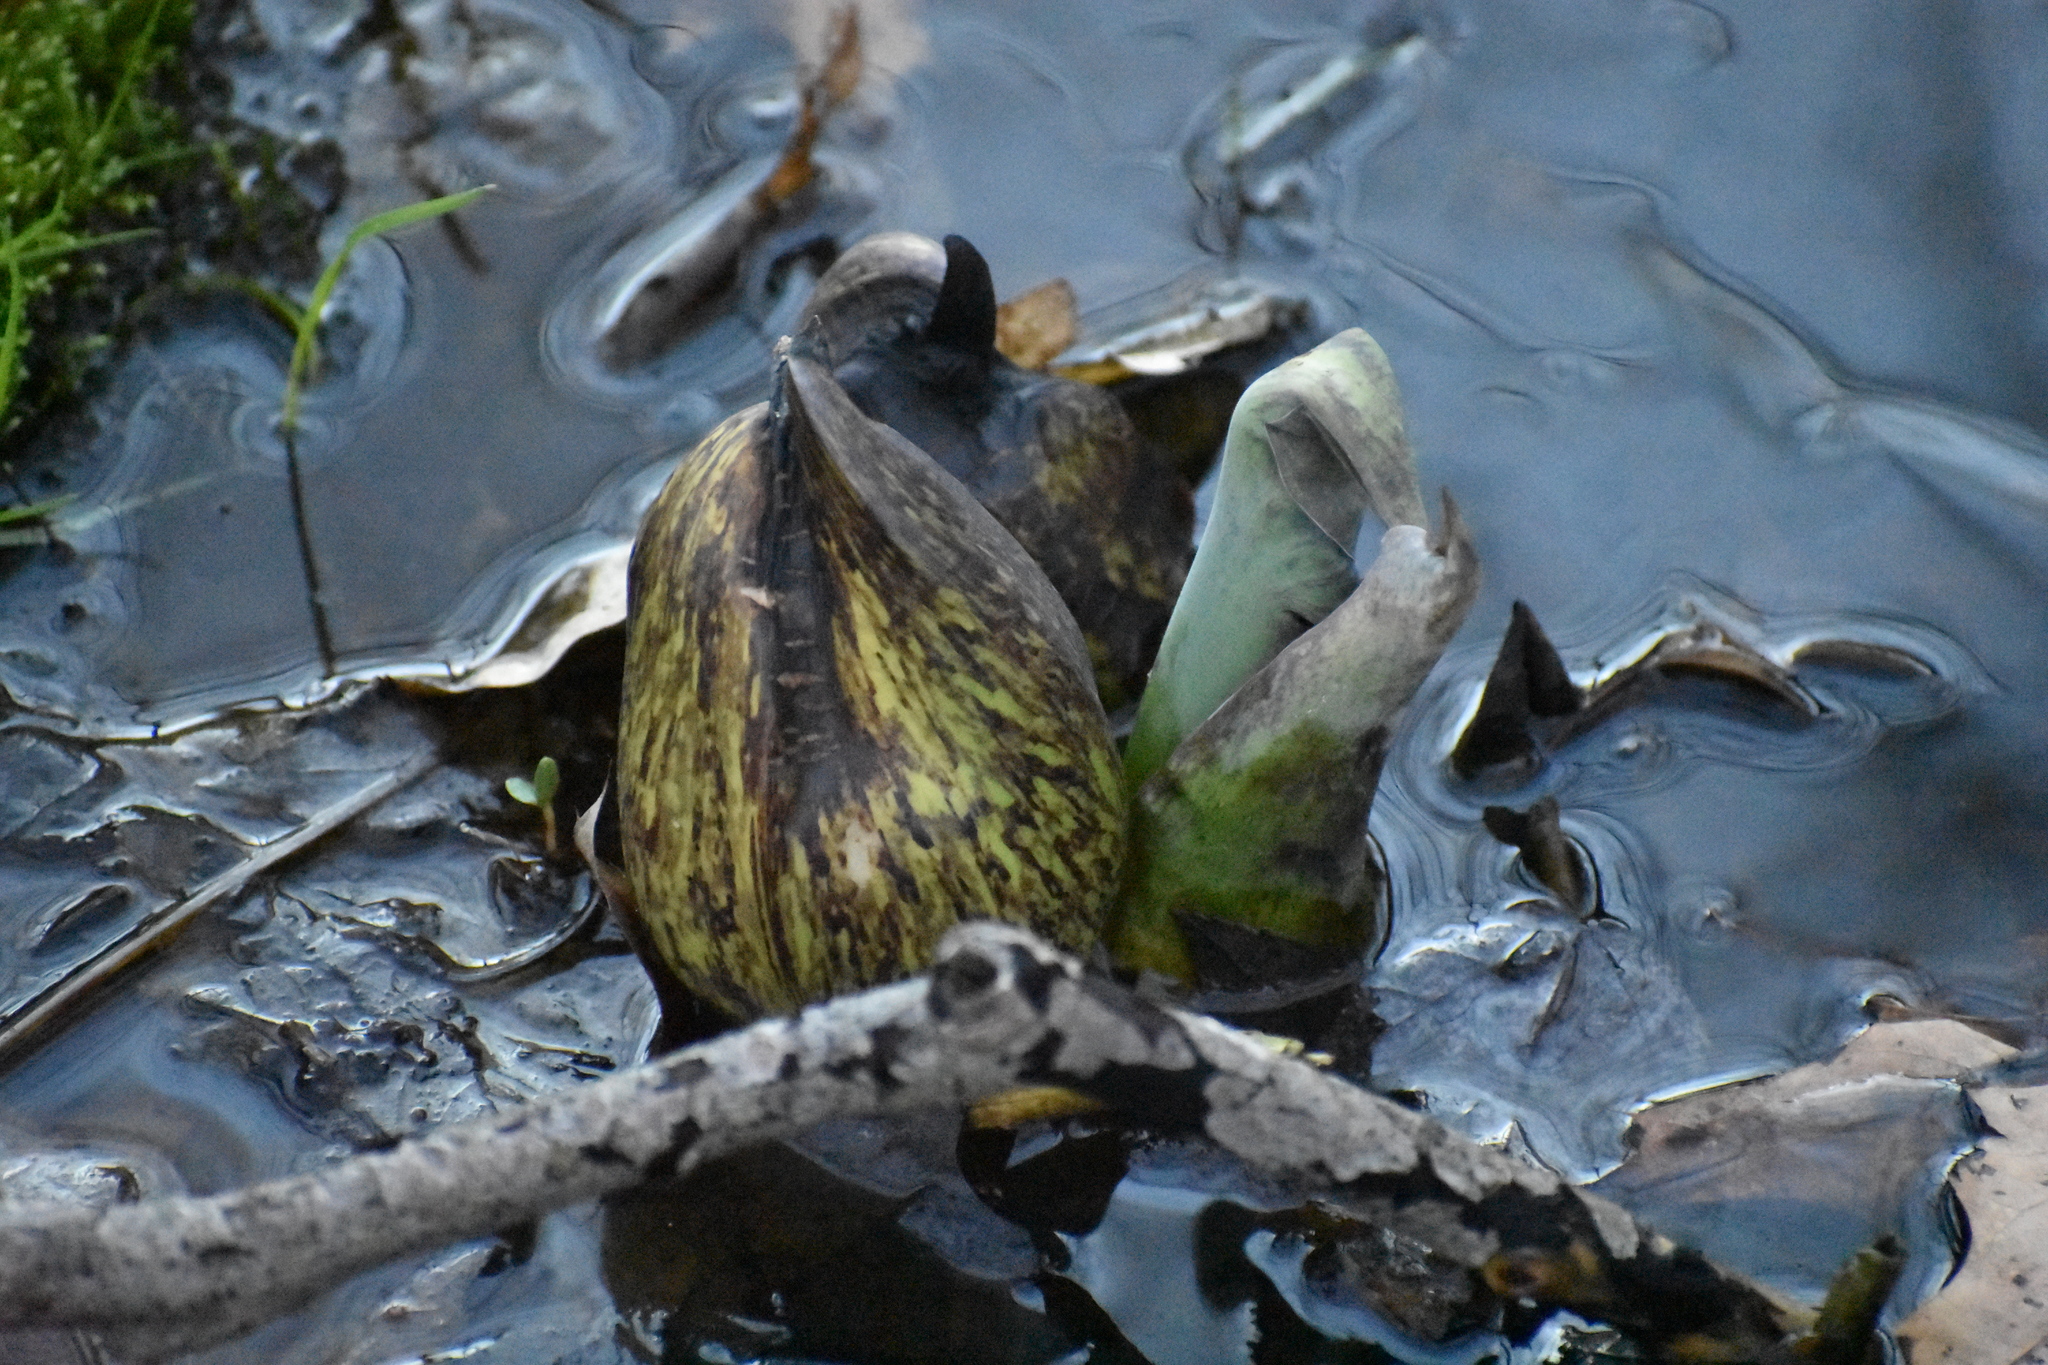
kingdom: Plantae
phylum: Tracheophyta
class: Liliopsida
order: Alismatales
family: Araceae
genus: Symplocarpus
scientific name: Symplocarpus foetidus
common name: Eastern skunk cabbage
